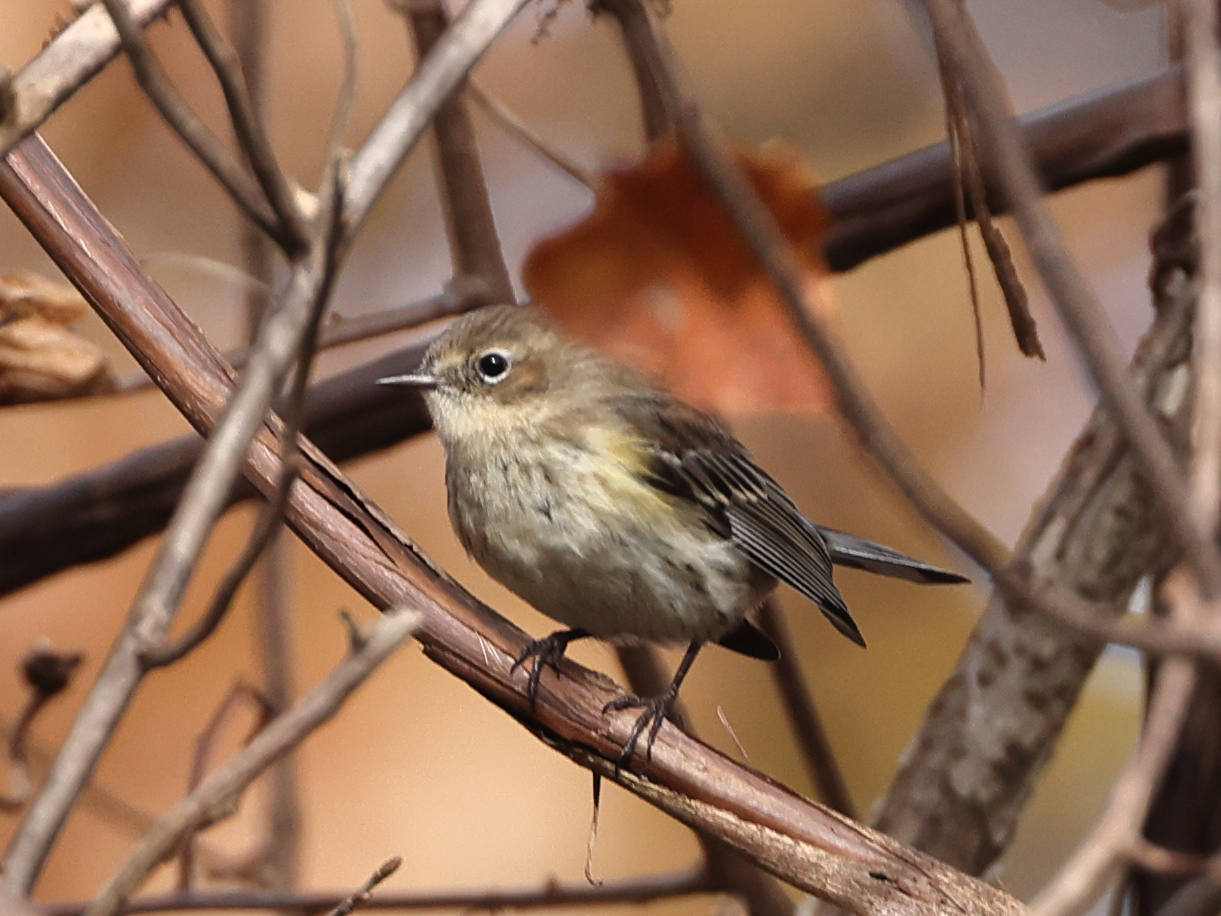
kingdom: Animalia
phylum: Chordata
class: Aves
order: Passeriformes
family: Parulidae
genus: Setophaga
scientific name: Setophaga coronata
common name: Myrtle warbler
